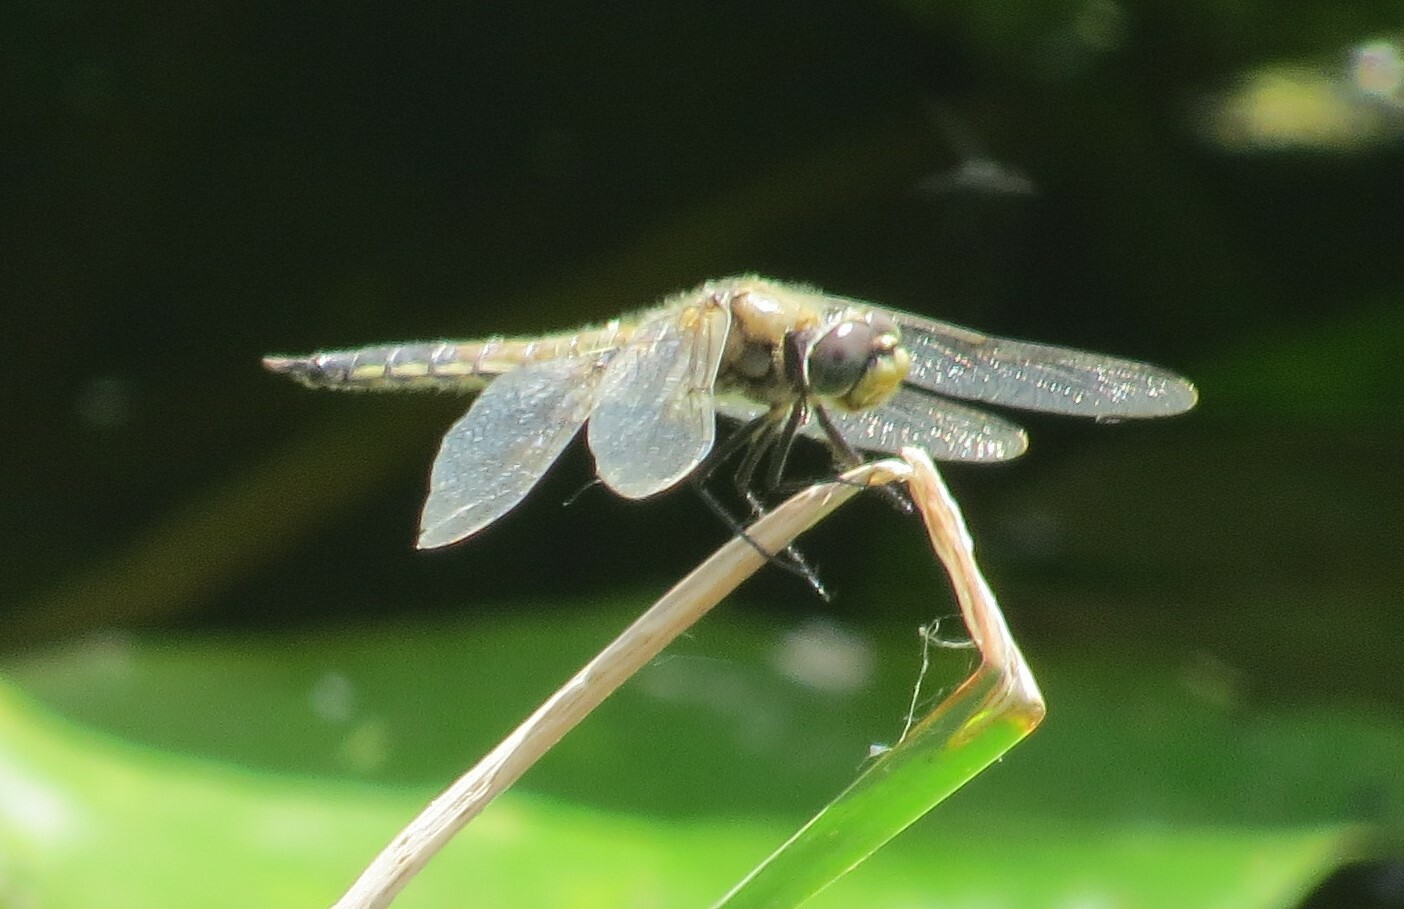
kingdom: Animalia
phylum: Arthropoda
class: Insecta
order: Odonata
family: Libellulidae
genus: Libellula
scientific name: Libellula quadrimaculata
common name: Four-spotted chaser
